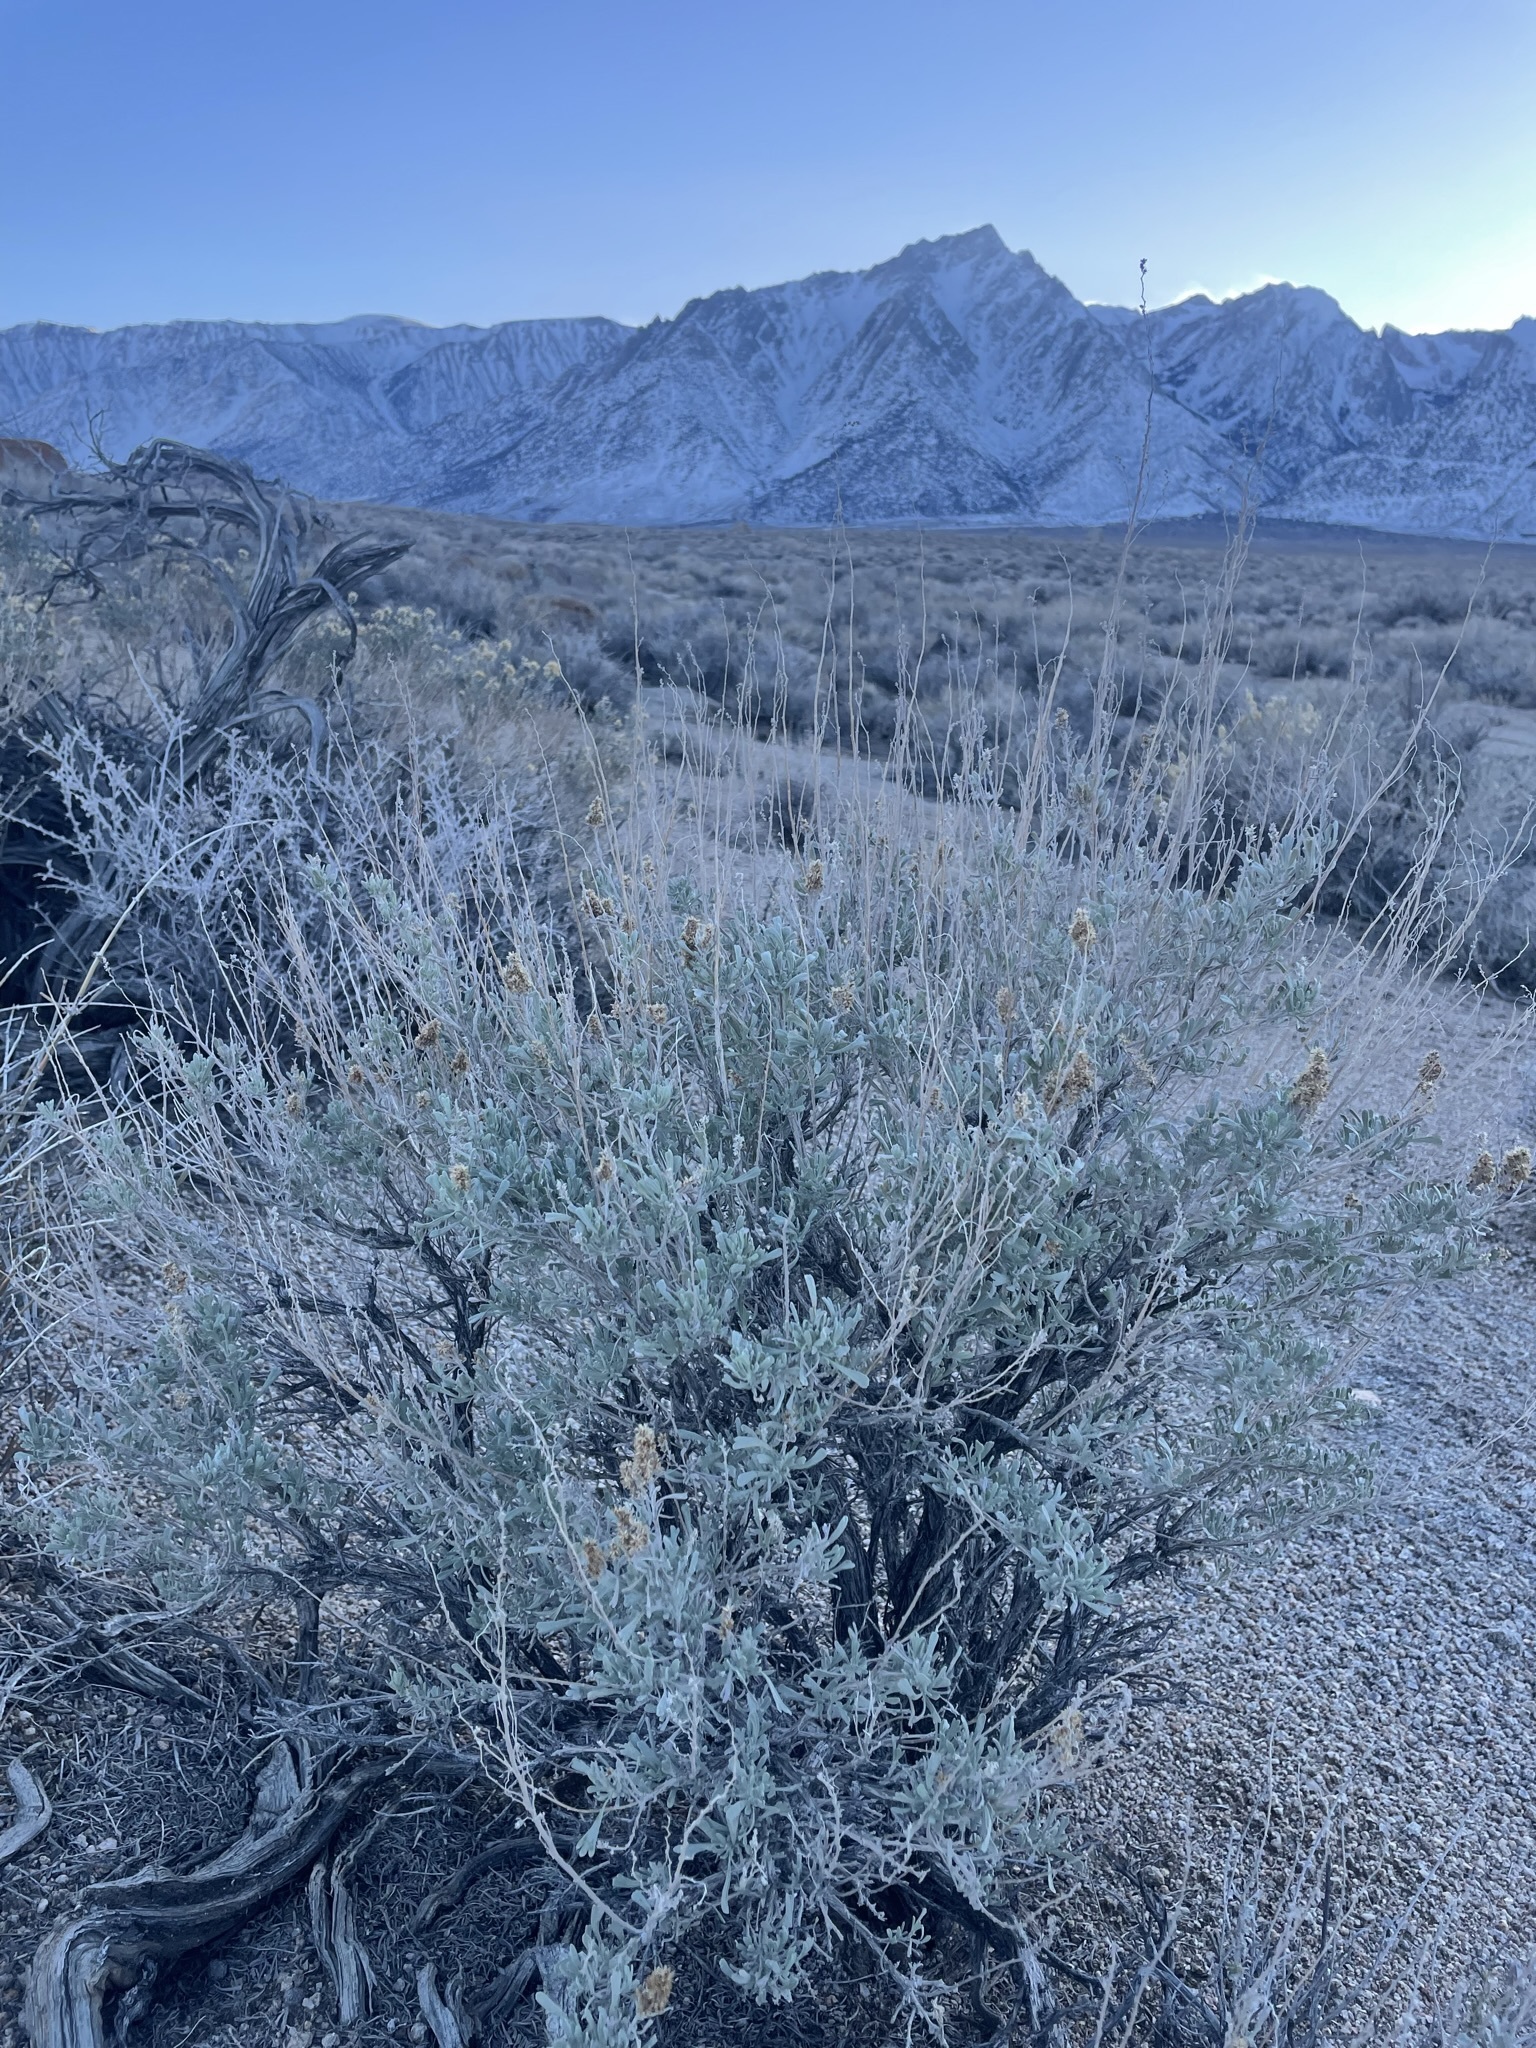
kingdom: Plantae
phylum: Tracheophyta
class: Magnoliopsida
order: Asterales
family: Asteraceae
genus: Artemisia
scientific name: Artemisia tridentata
